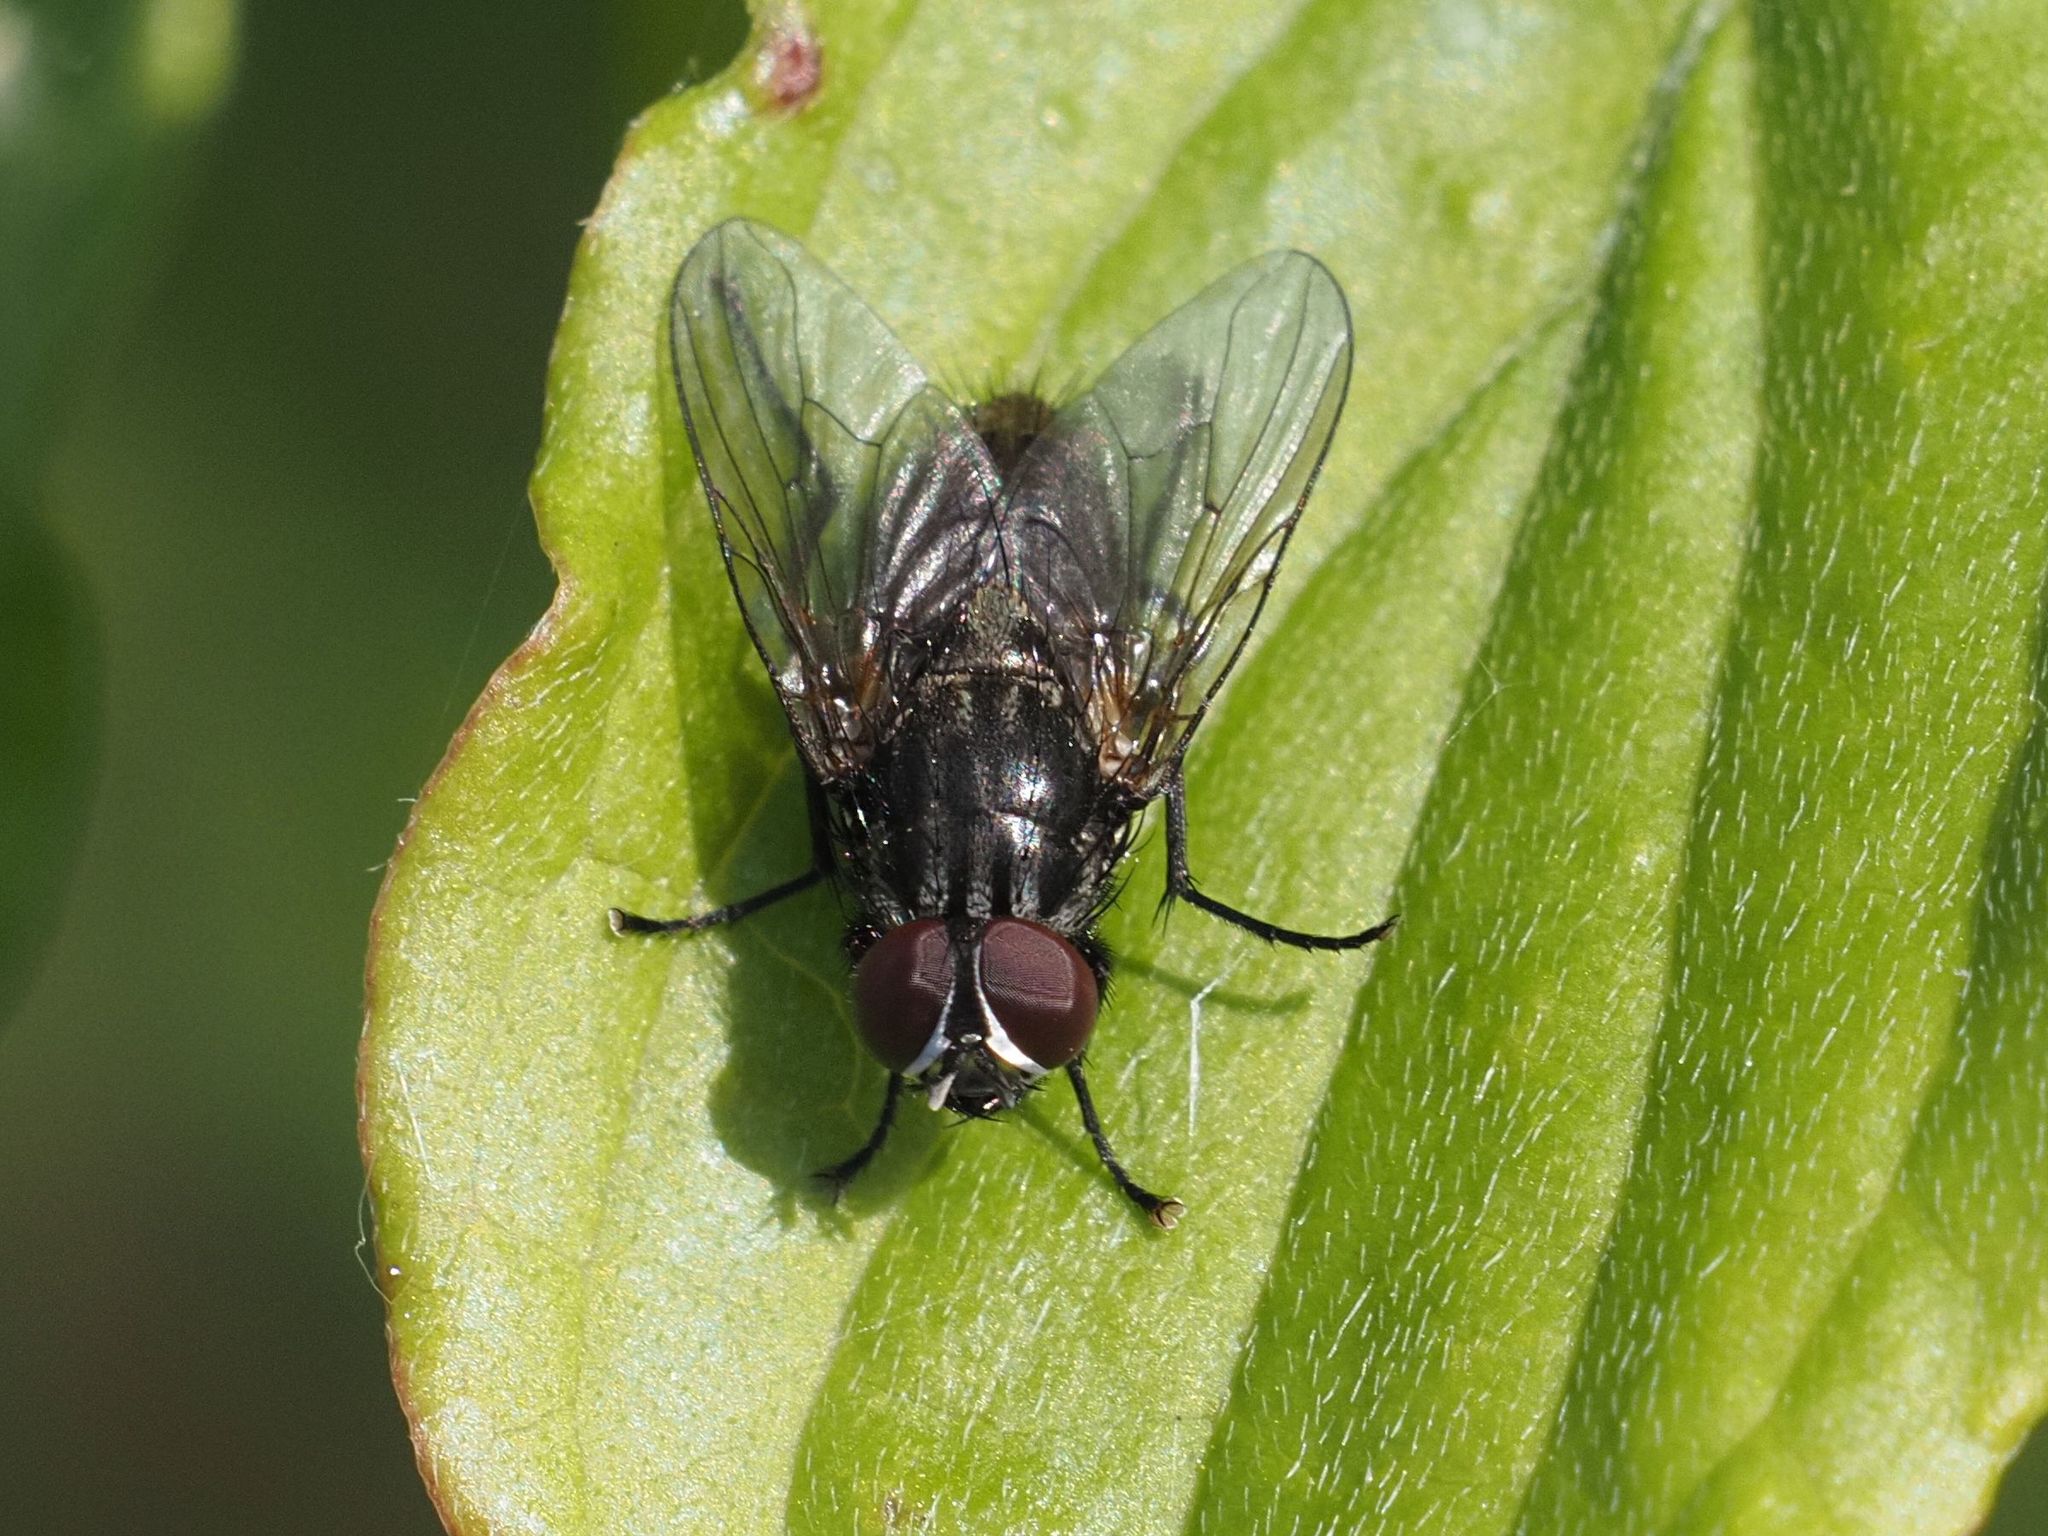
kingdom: Animalia
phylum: Arthropoda
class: Insecta
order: Diptera
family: Muscidae
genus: Myospila
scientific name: Myospila meditabunda
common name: Muscoid fly
